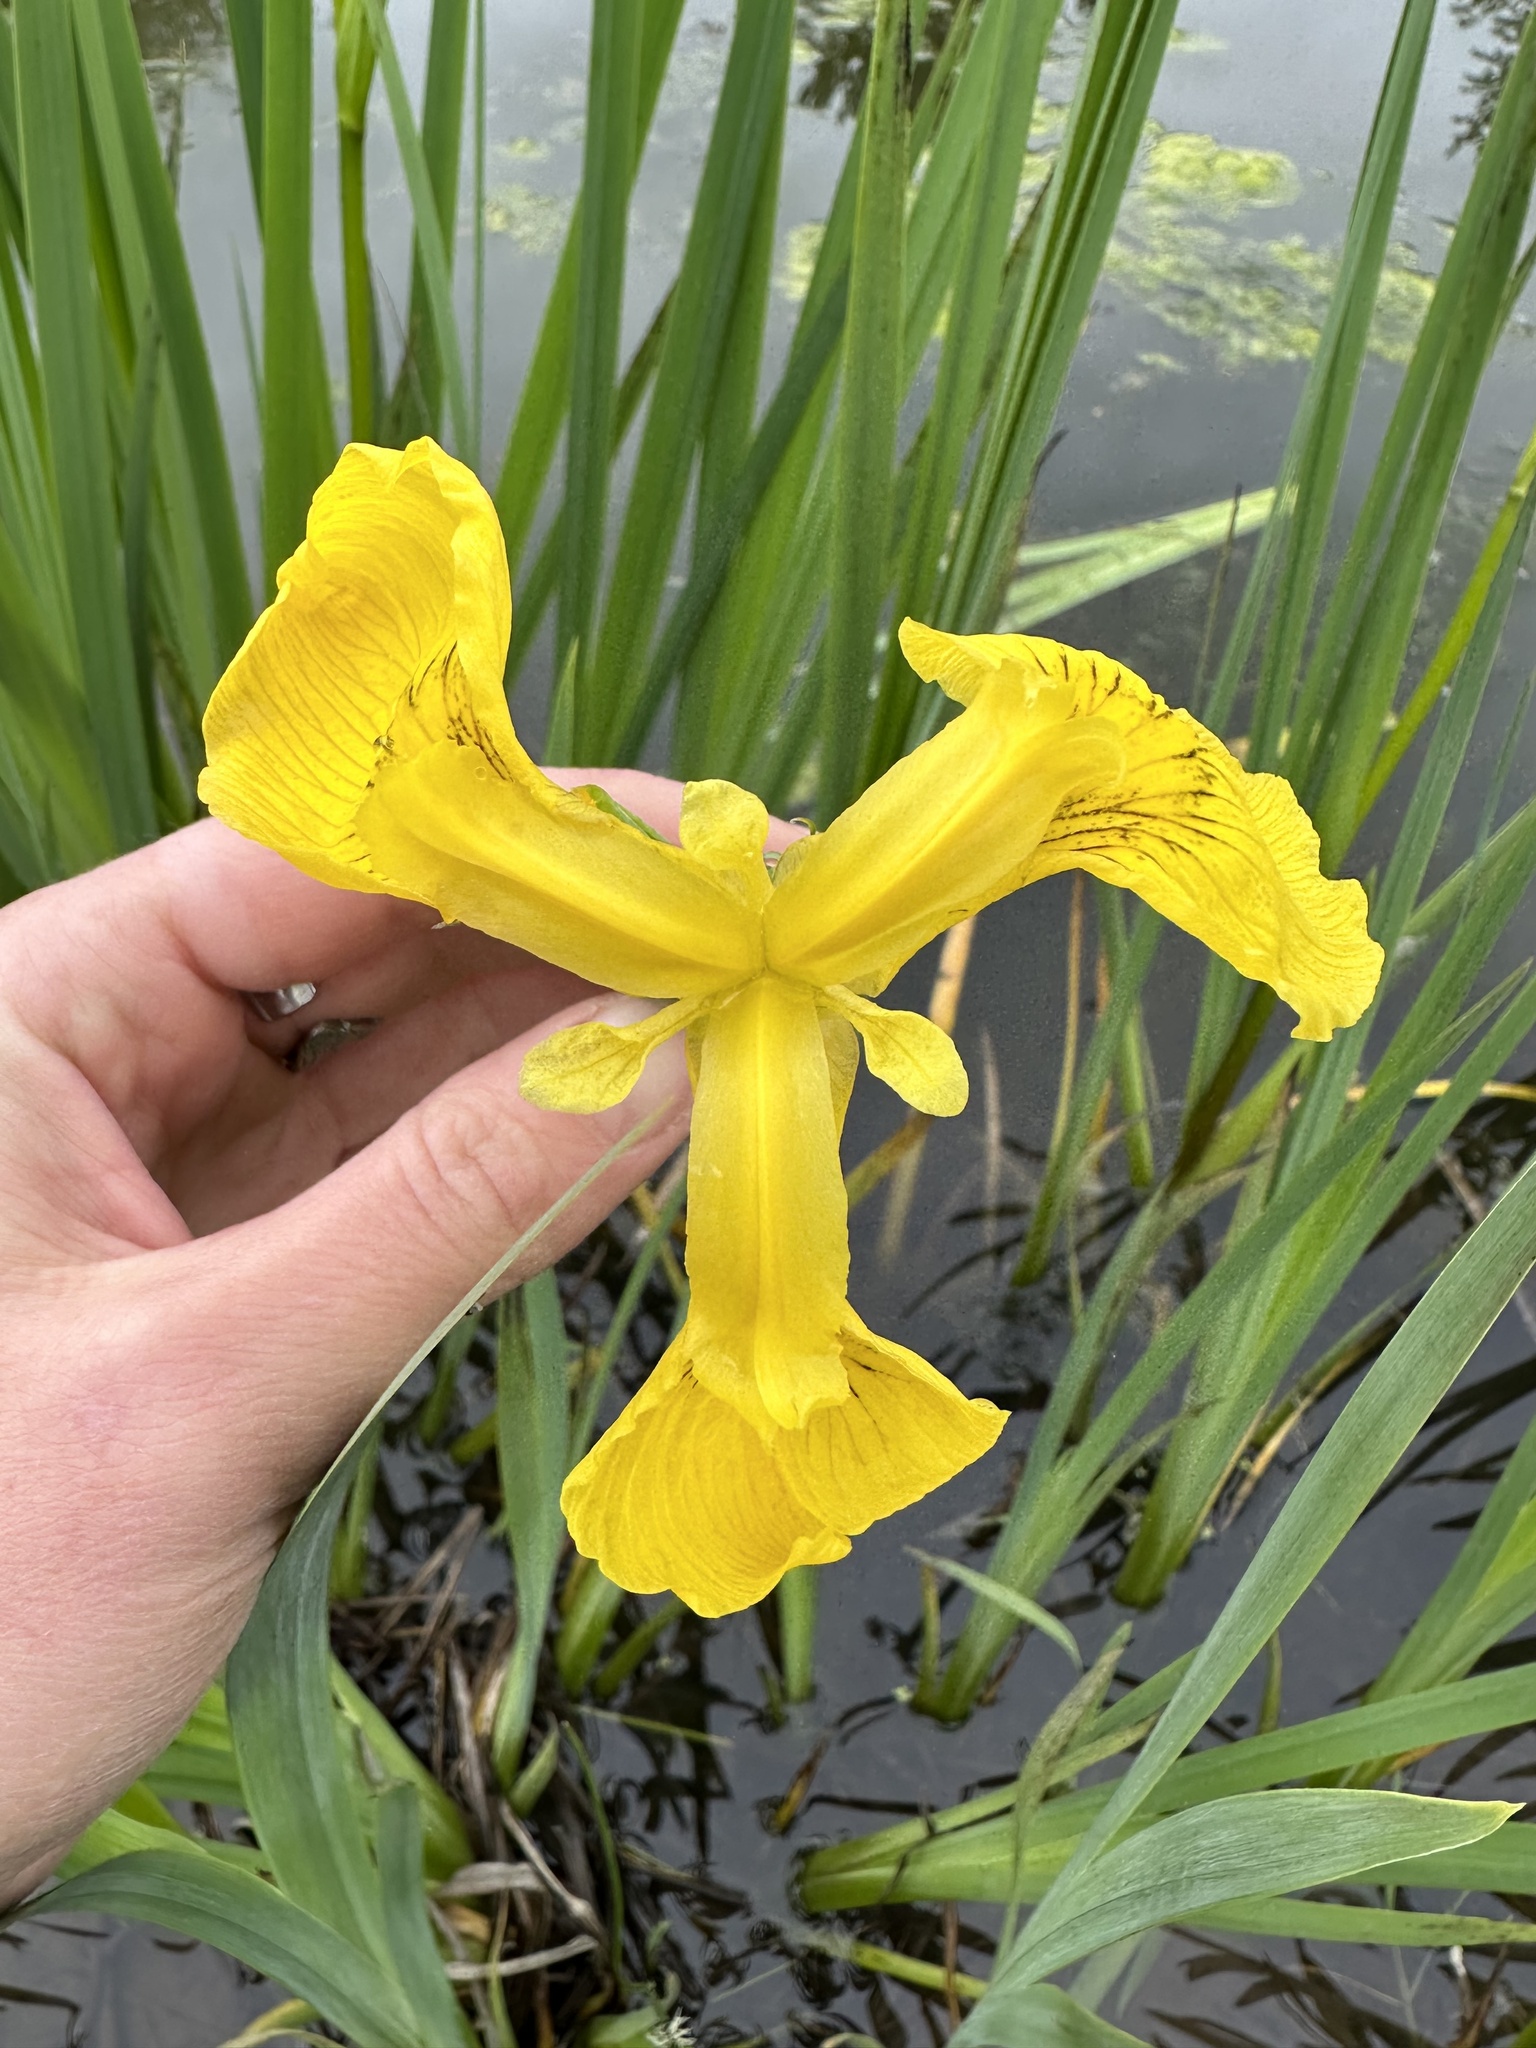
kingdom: Plantae
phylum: Tracheophyta
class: Liliopsida
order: Asparagales
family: Iridaceae
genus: Iris
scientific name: Iris pseudacorus
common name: Yellow flag
